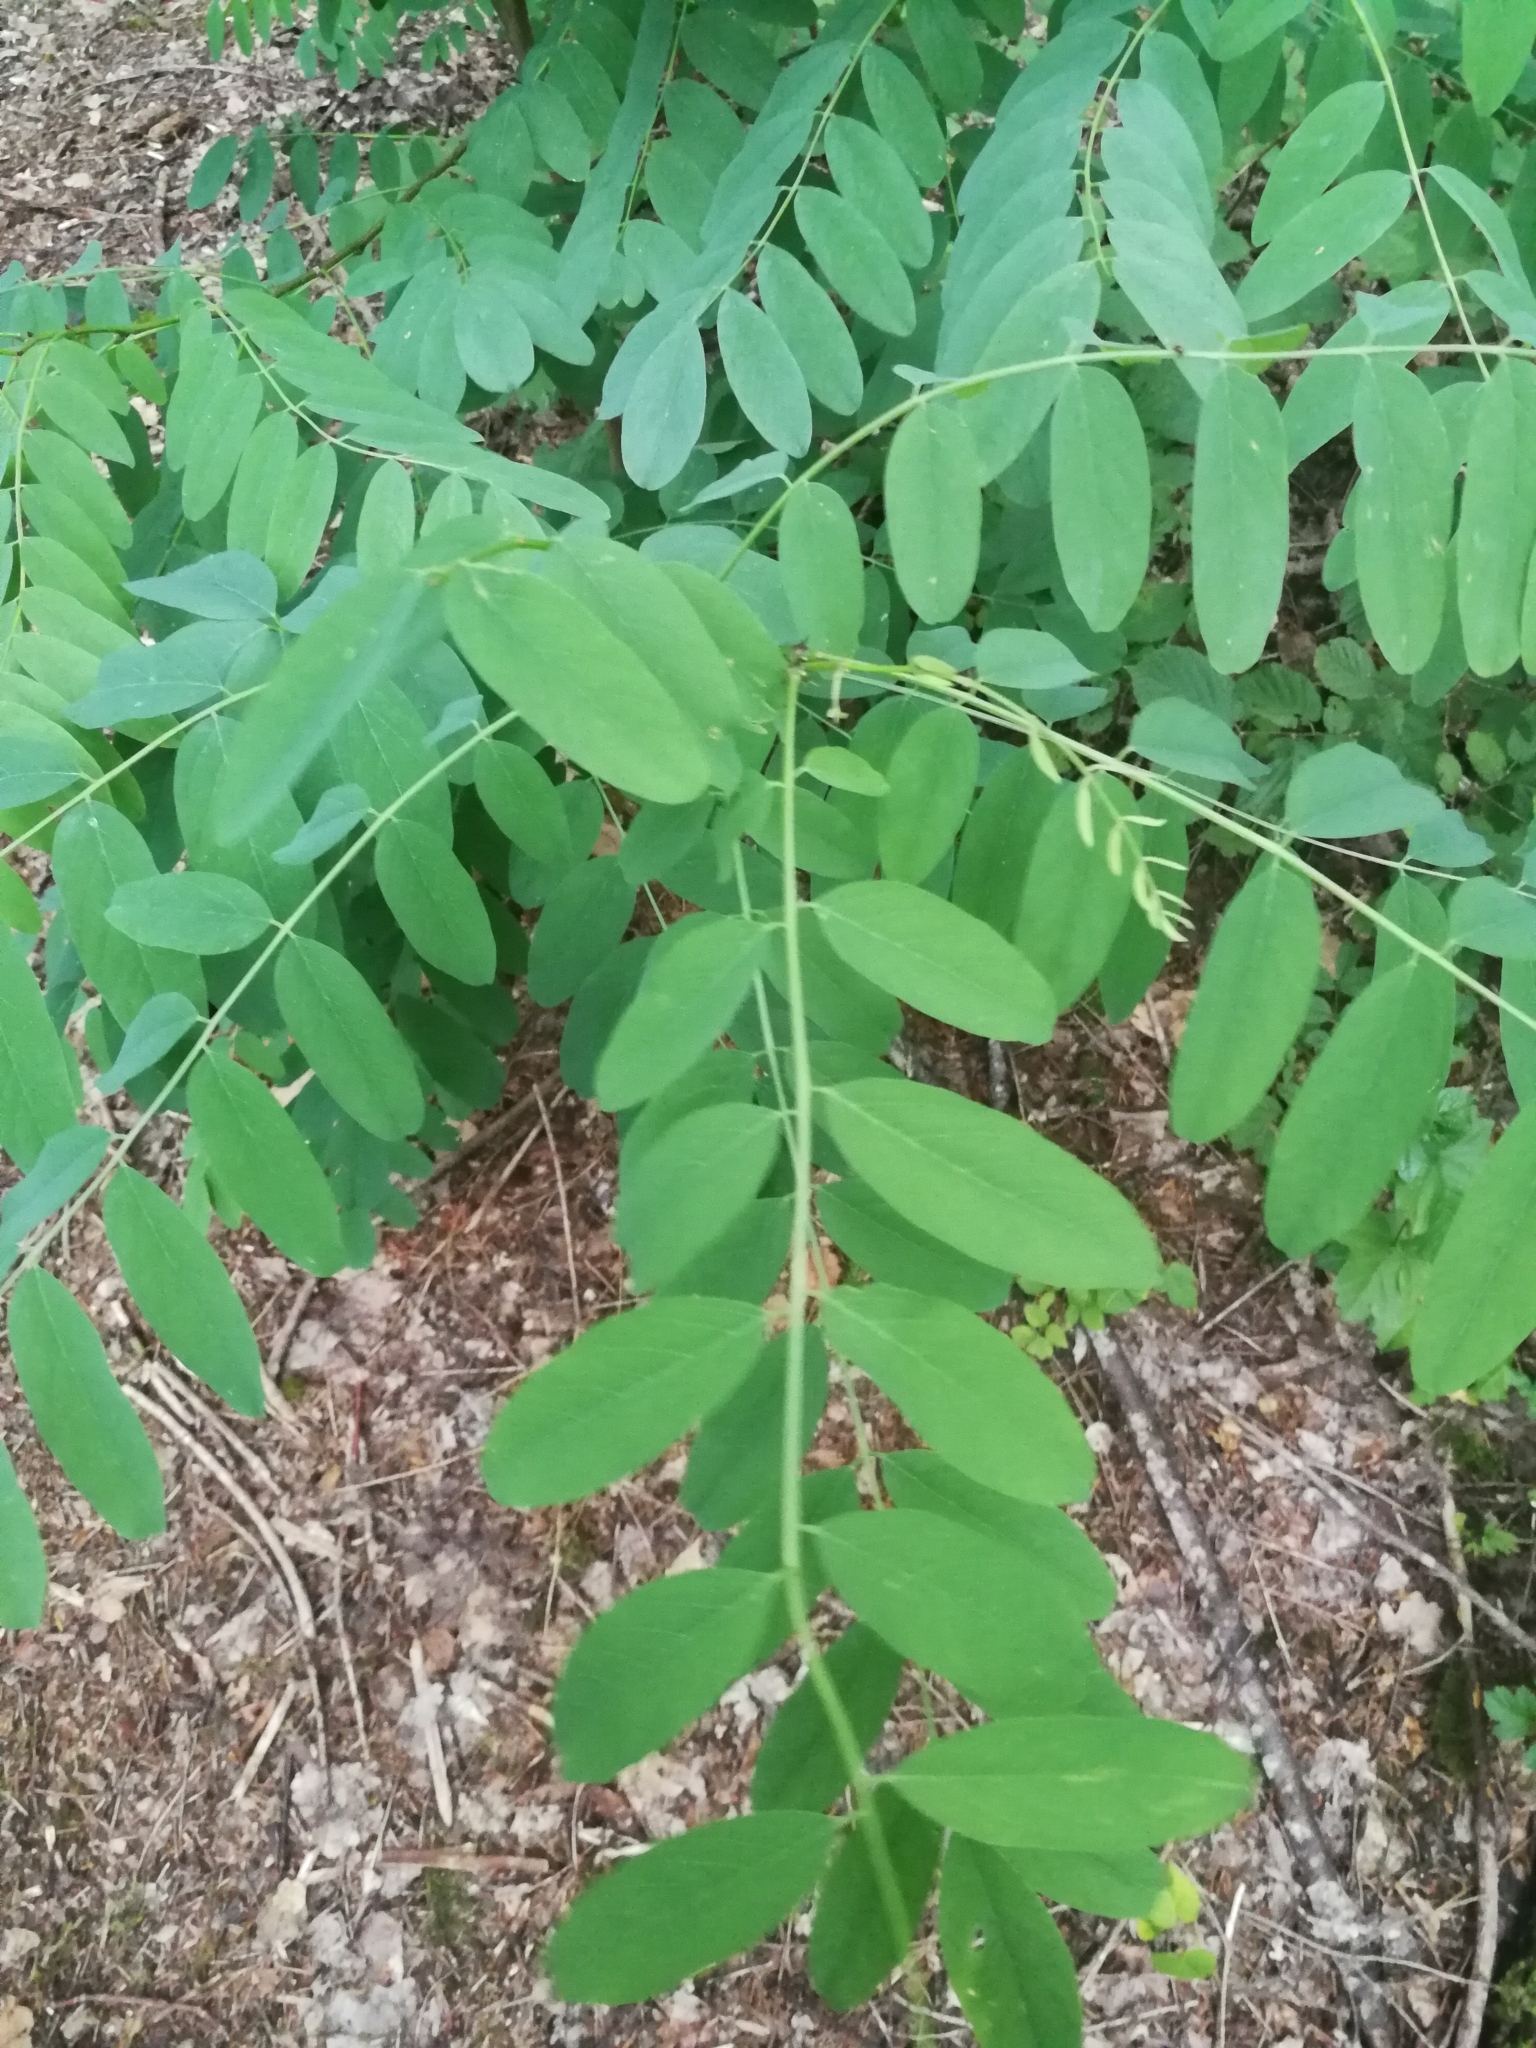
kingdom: Plantae
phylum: Tracheophyta
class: Magnoliopsida
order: Fabales
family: Fabaceae
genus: Robinia
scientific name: Robinia pseudoacacia
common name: Black locust
